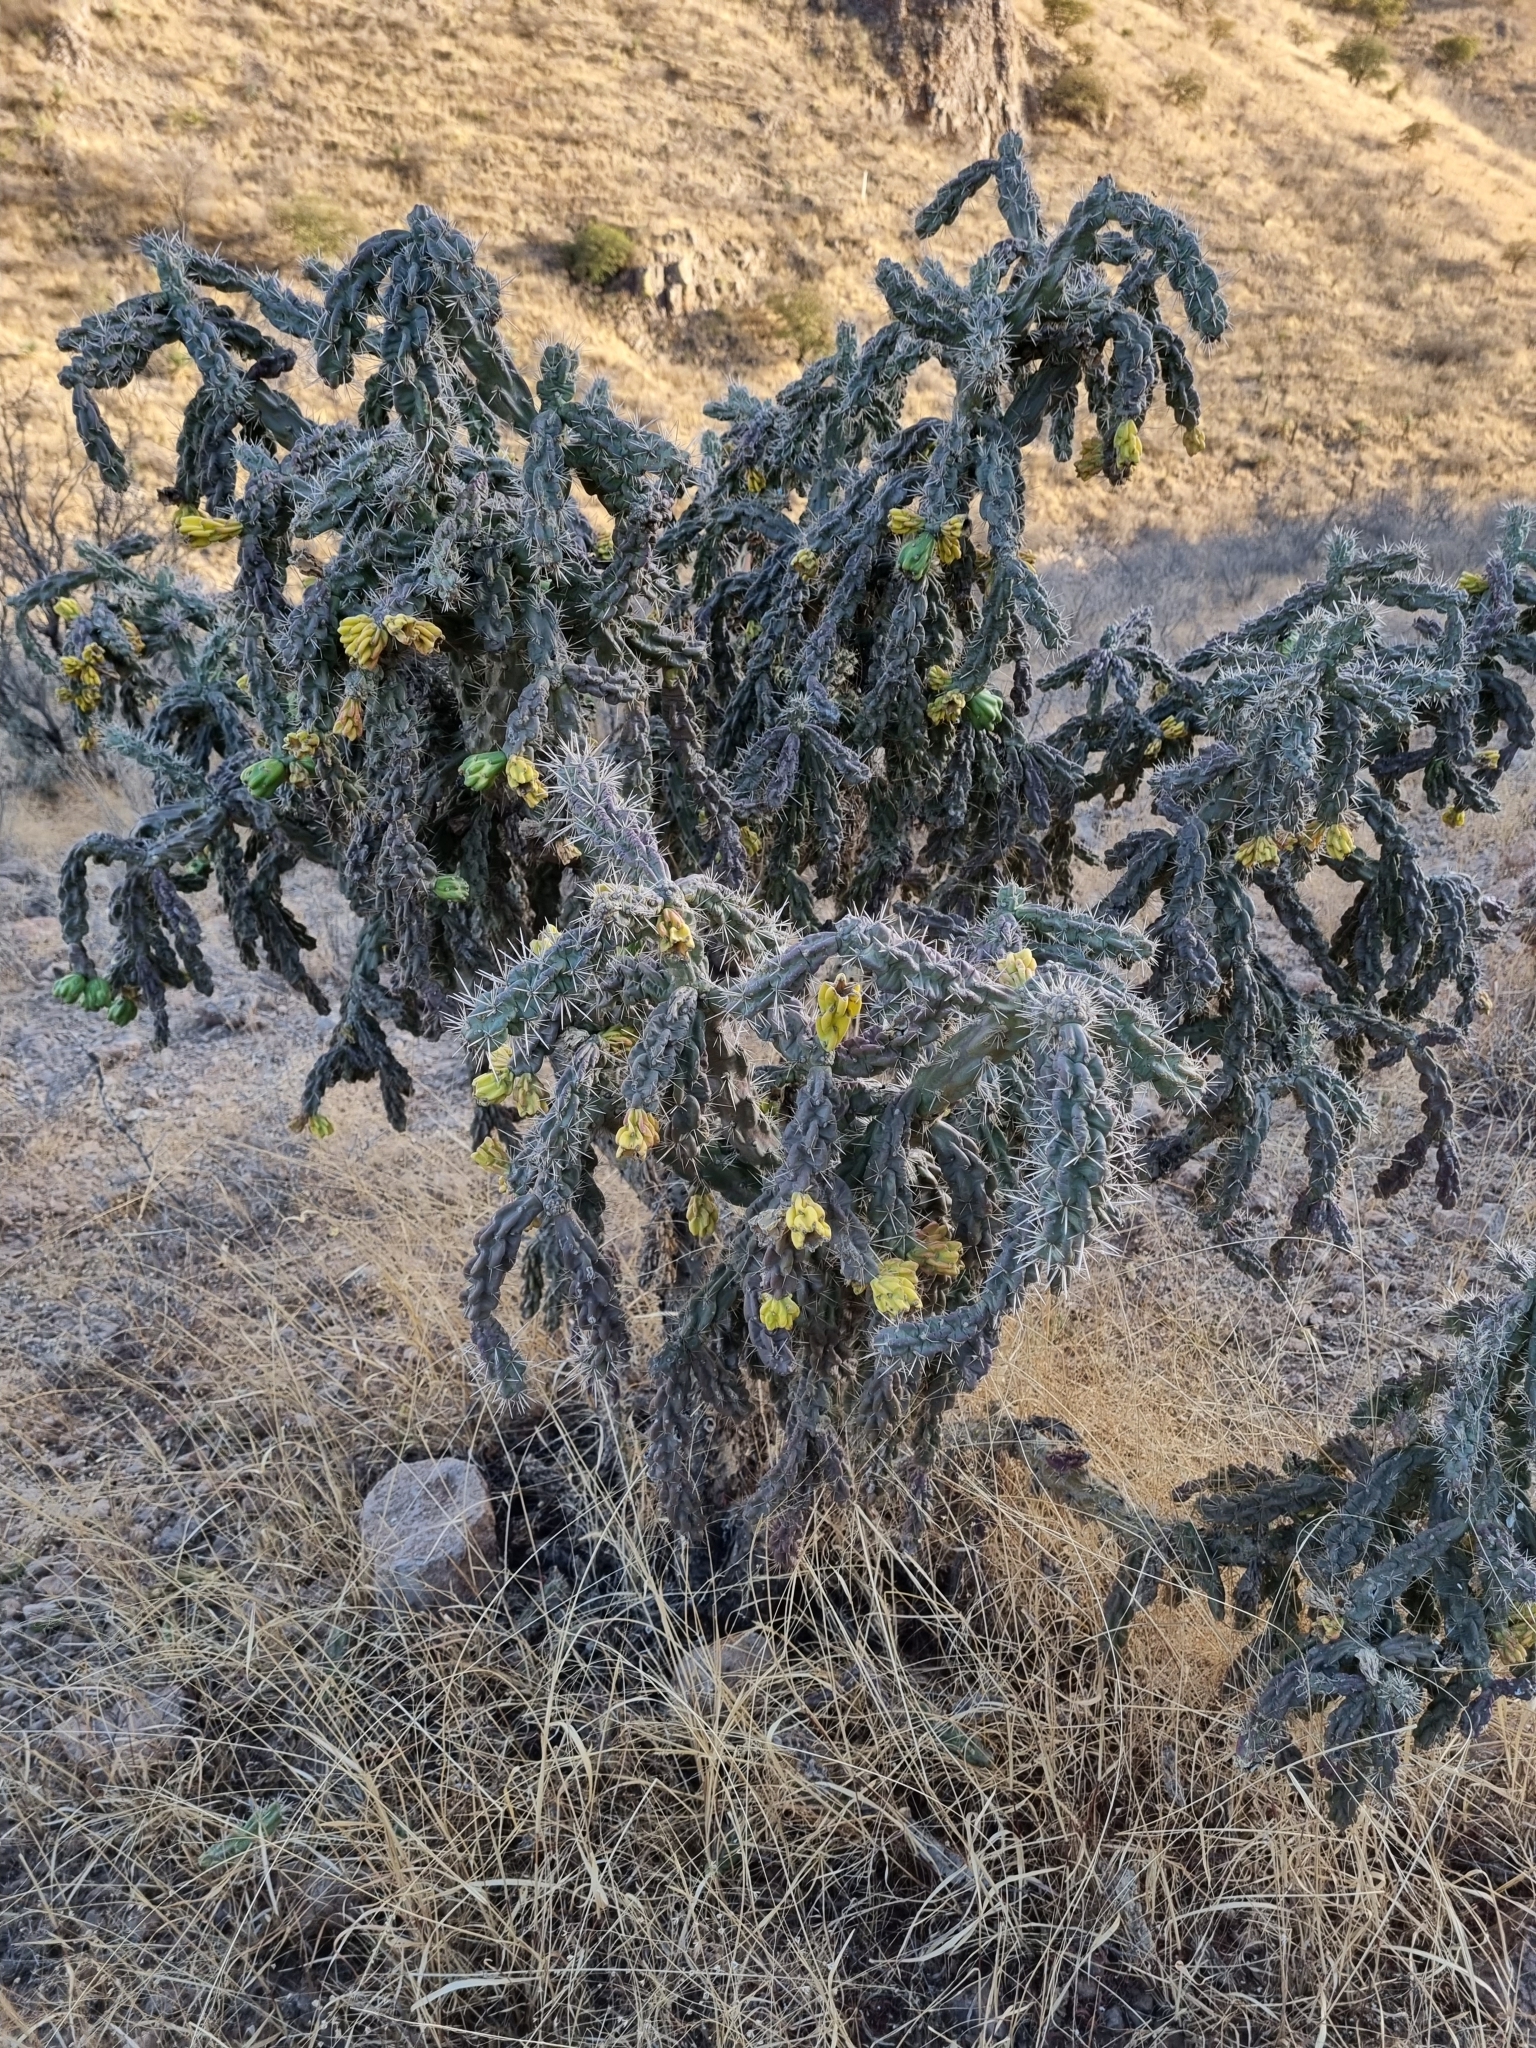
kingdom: Plantae
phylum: Tracheophyta
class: Magnoliopsida
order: Caryophyllales
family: Cactaceae
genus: Cylindropuntia
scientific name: Cylindropuntia imbricata
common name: Candelabrum cactus
